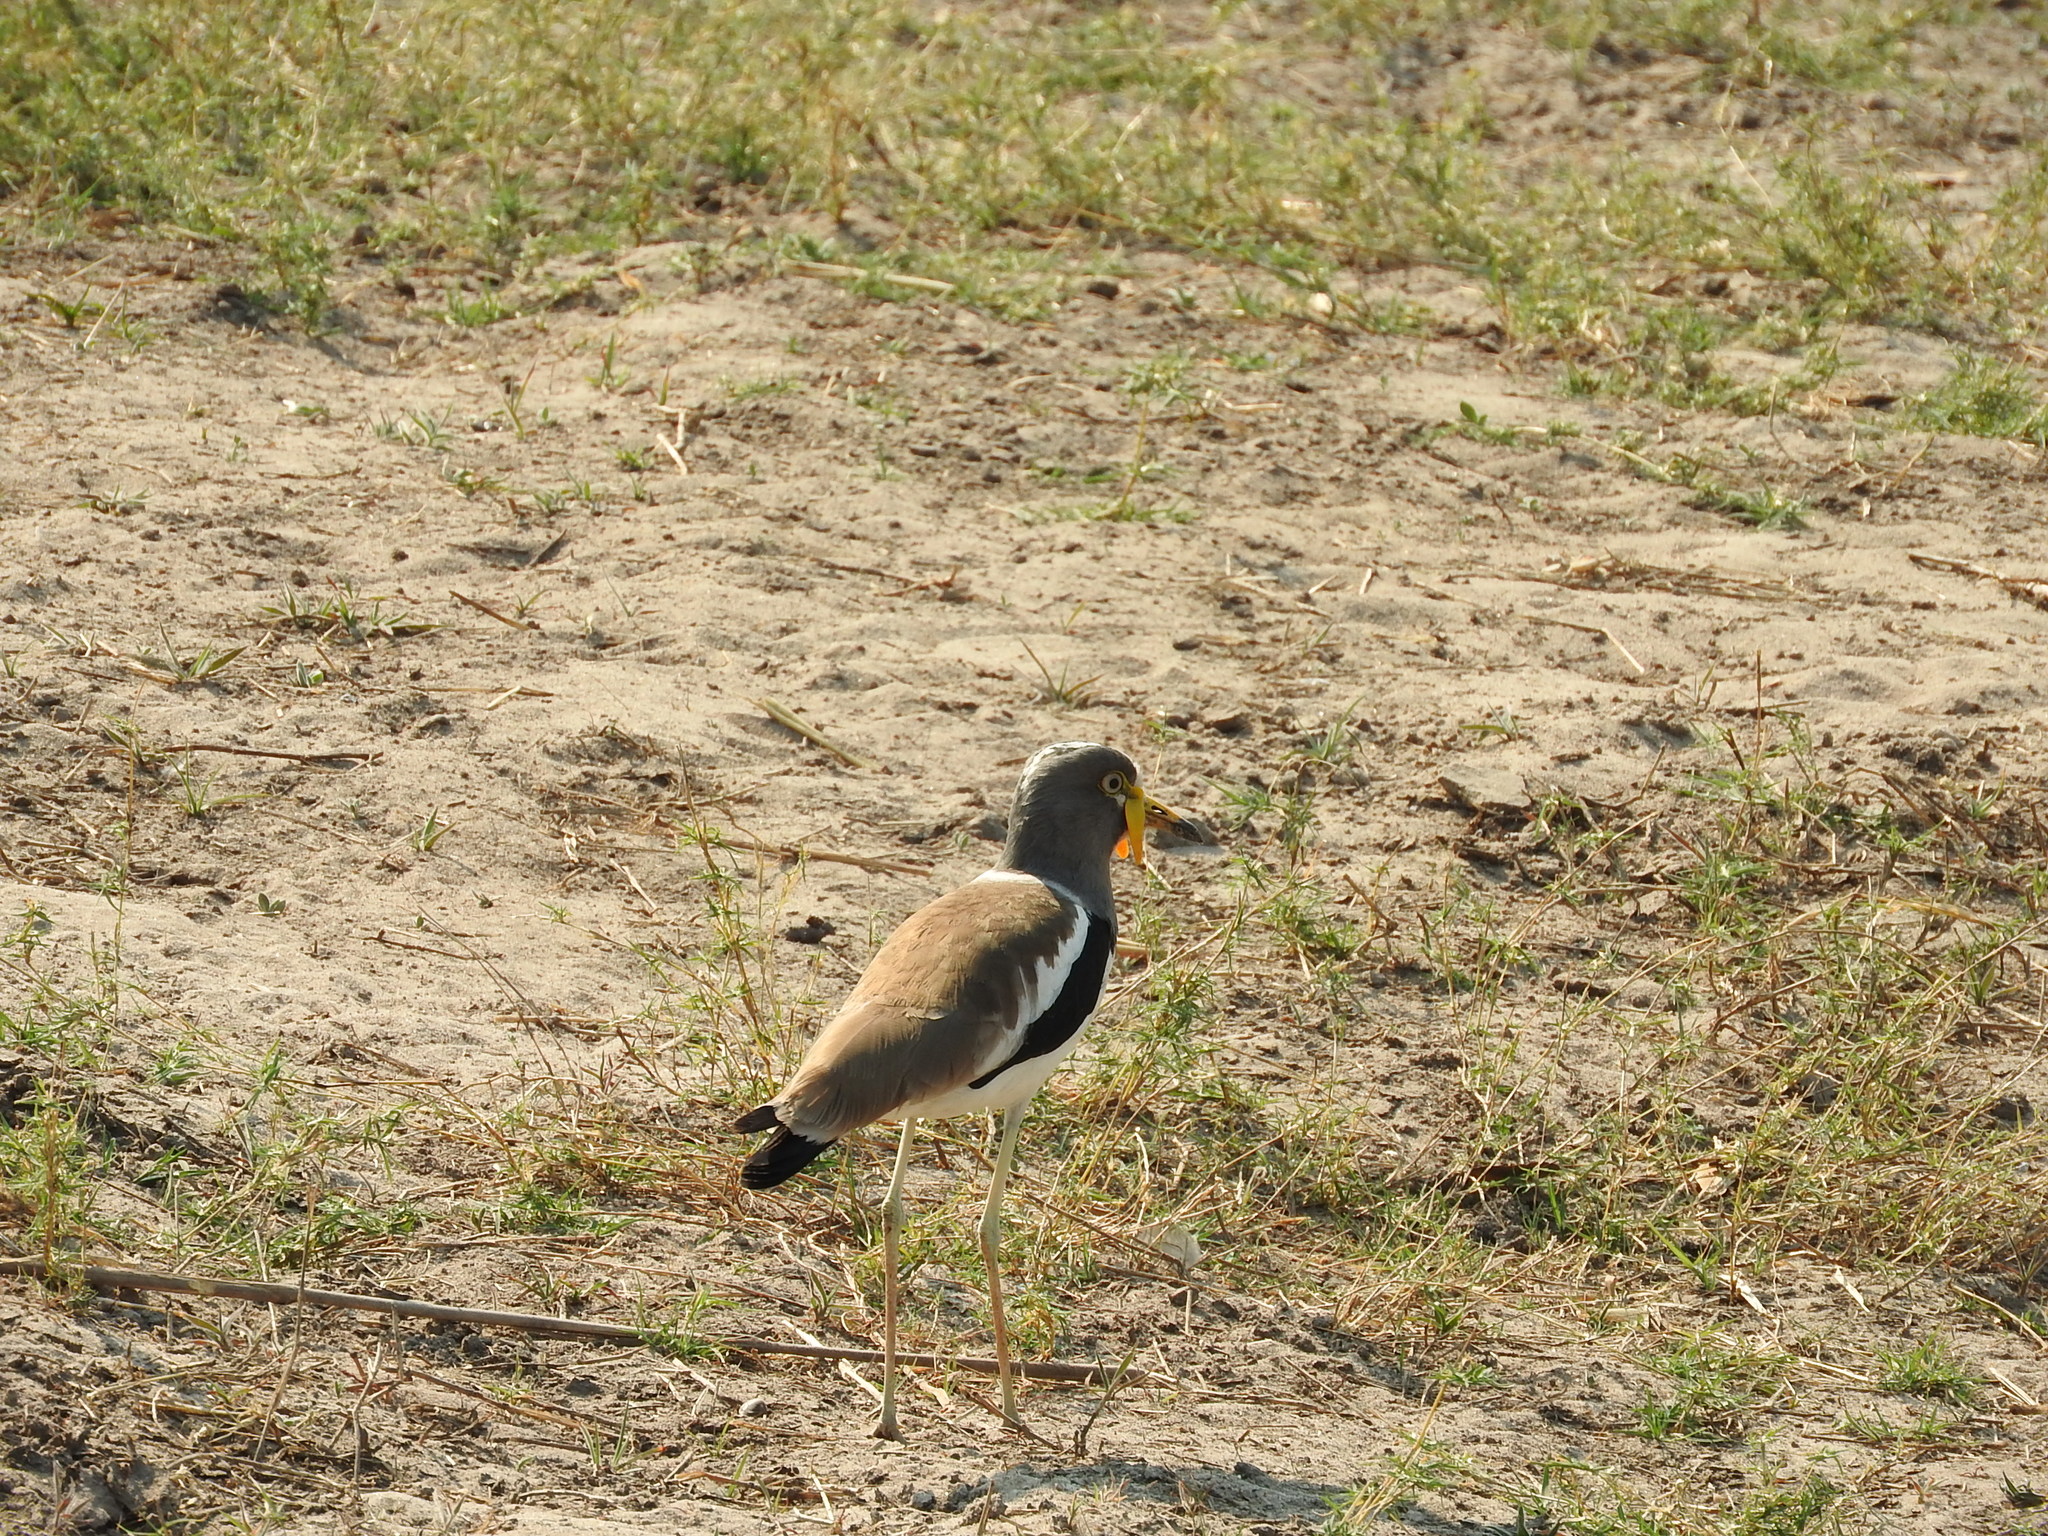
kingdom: Animalia
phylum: Chordata
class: Aves
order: Charadriiformes
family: Charadriidae
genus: Vanellus
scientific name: Vanellus albiceps
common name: White-crowned lapwing
